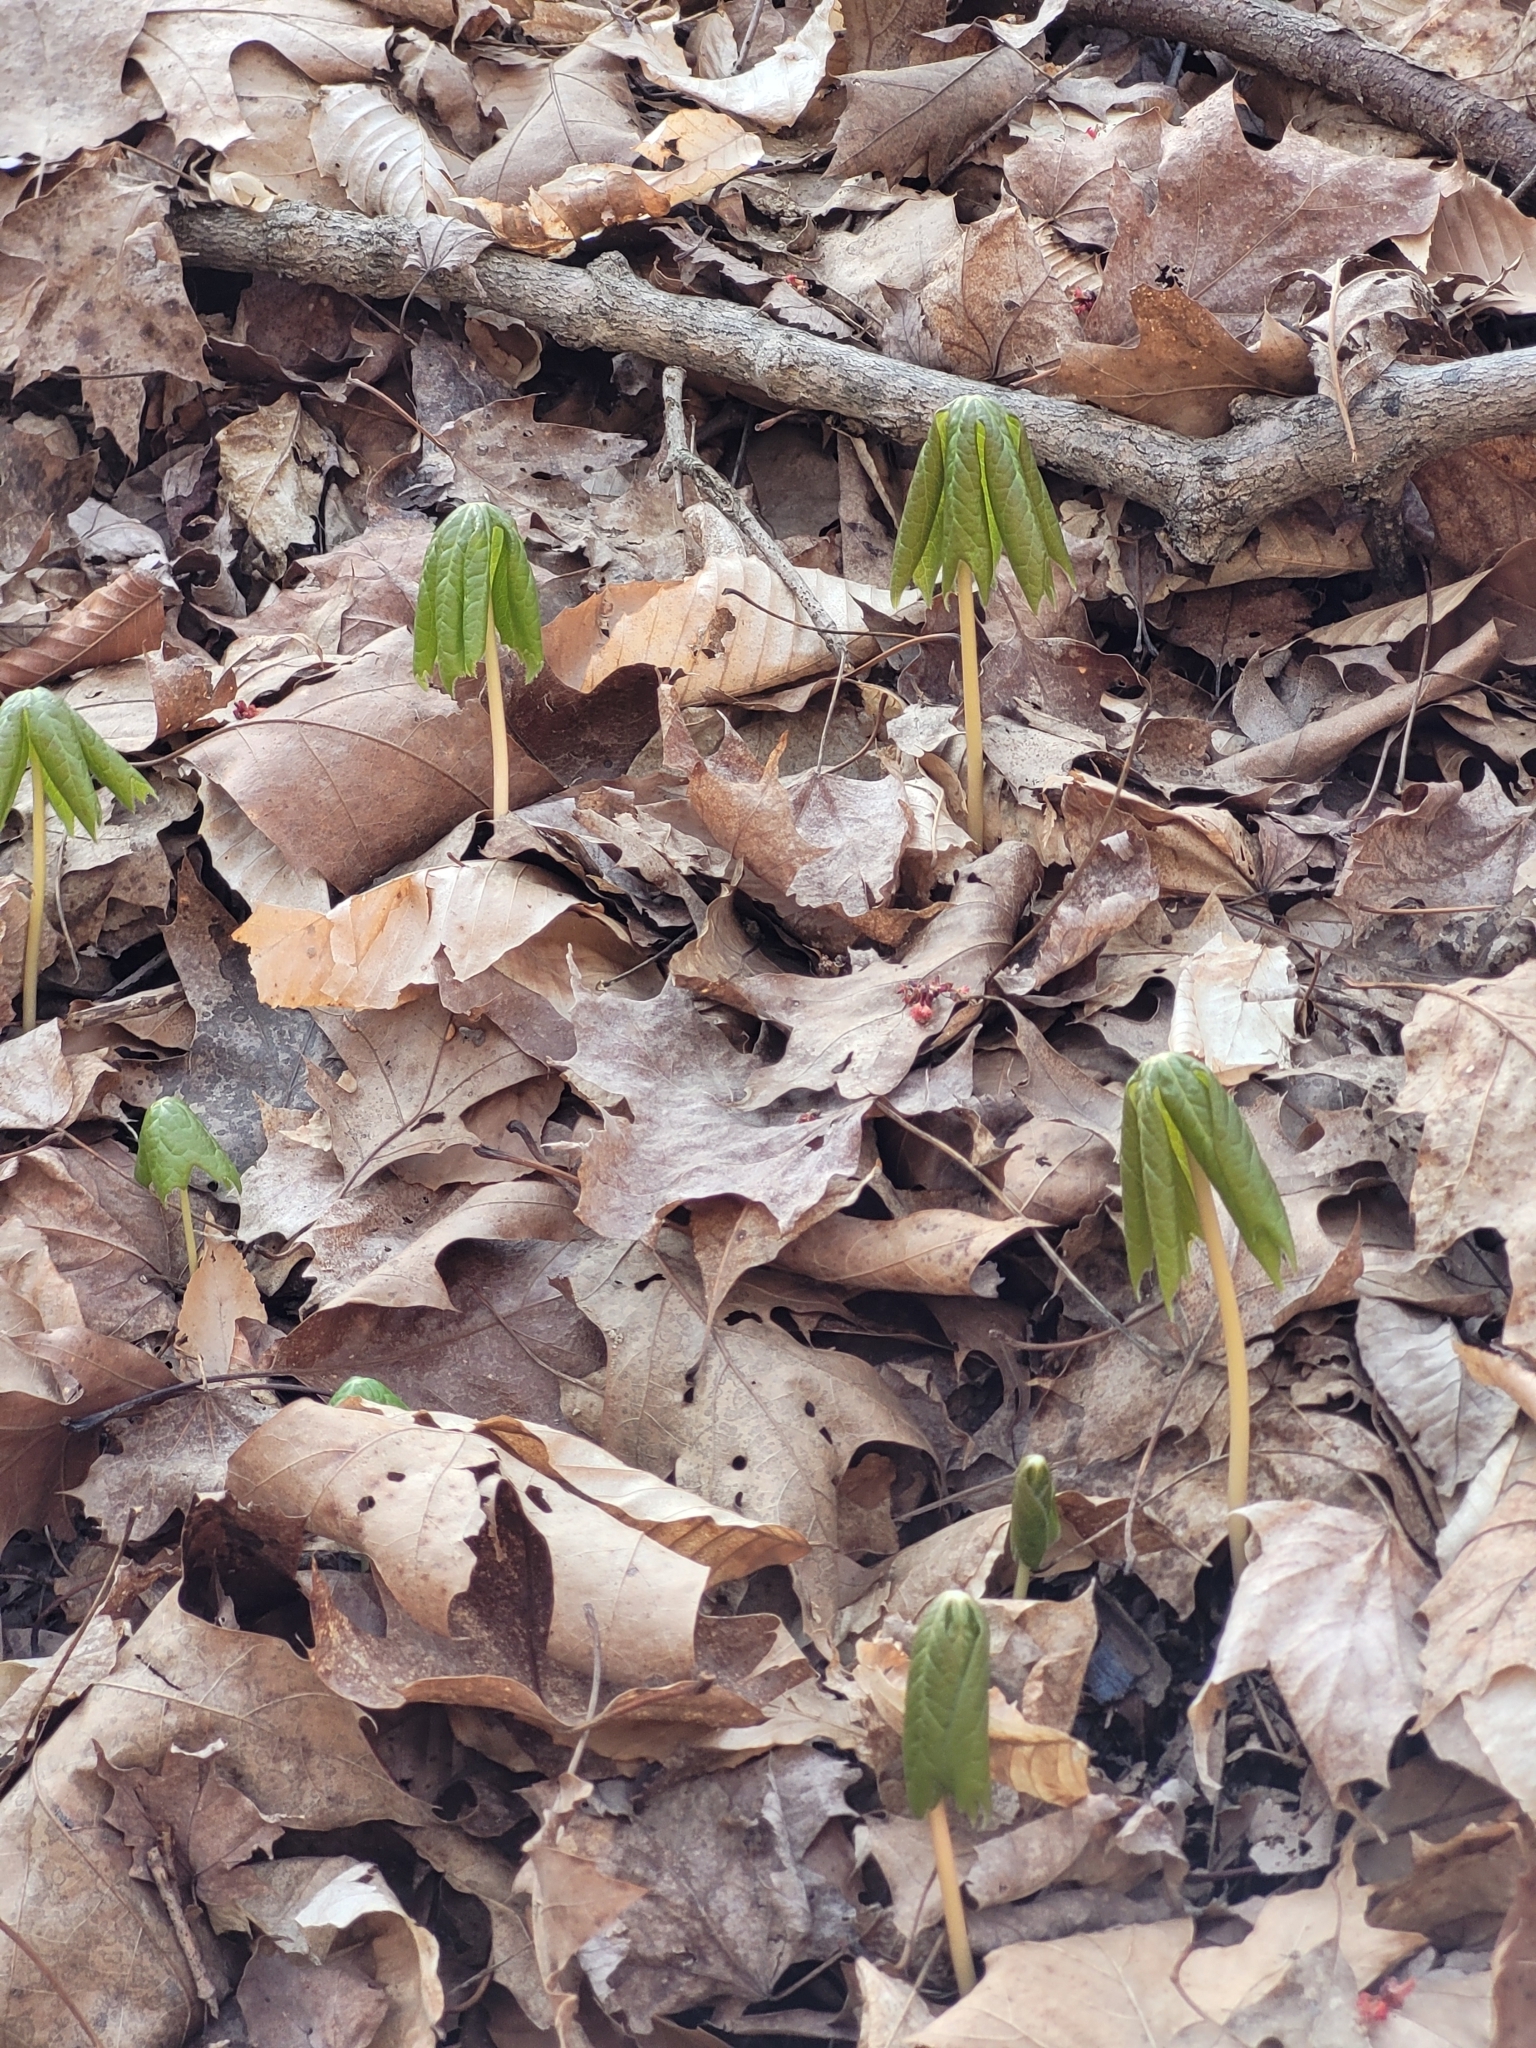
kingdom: Plantae
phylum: Tracheophyta
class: Magnoliopsida
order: Ranunculales
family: Berberidaceae
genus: Podophyllum
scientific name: Podophyllum peltatum
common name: Wild mandrake
